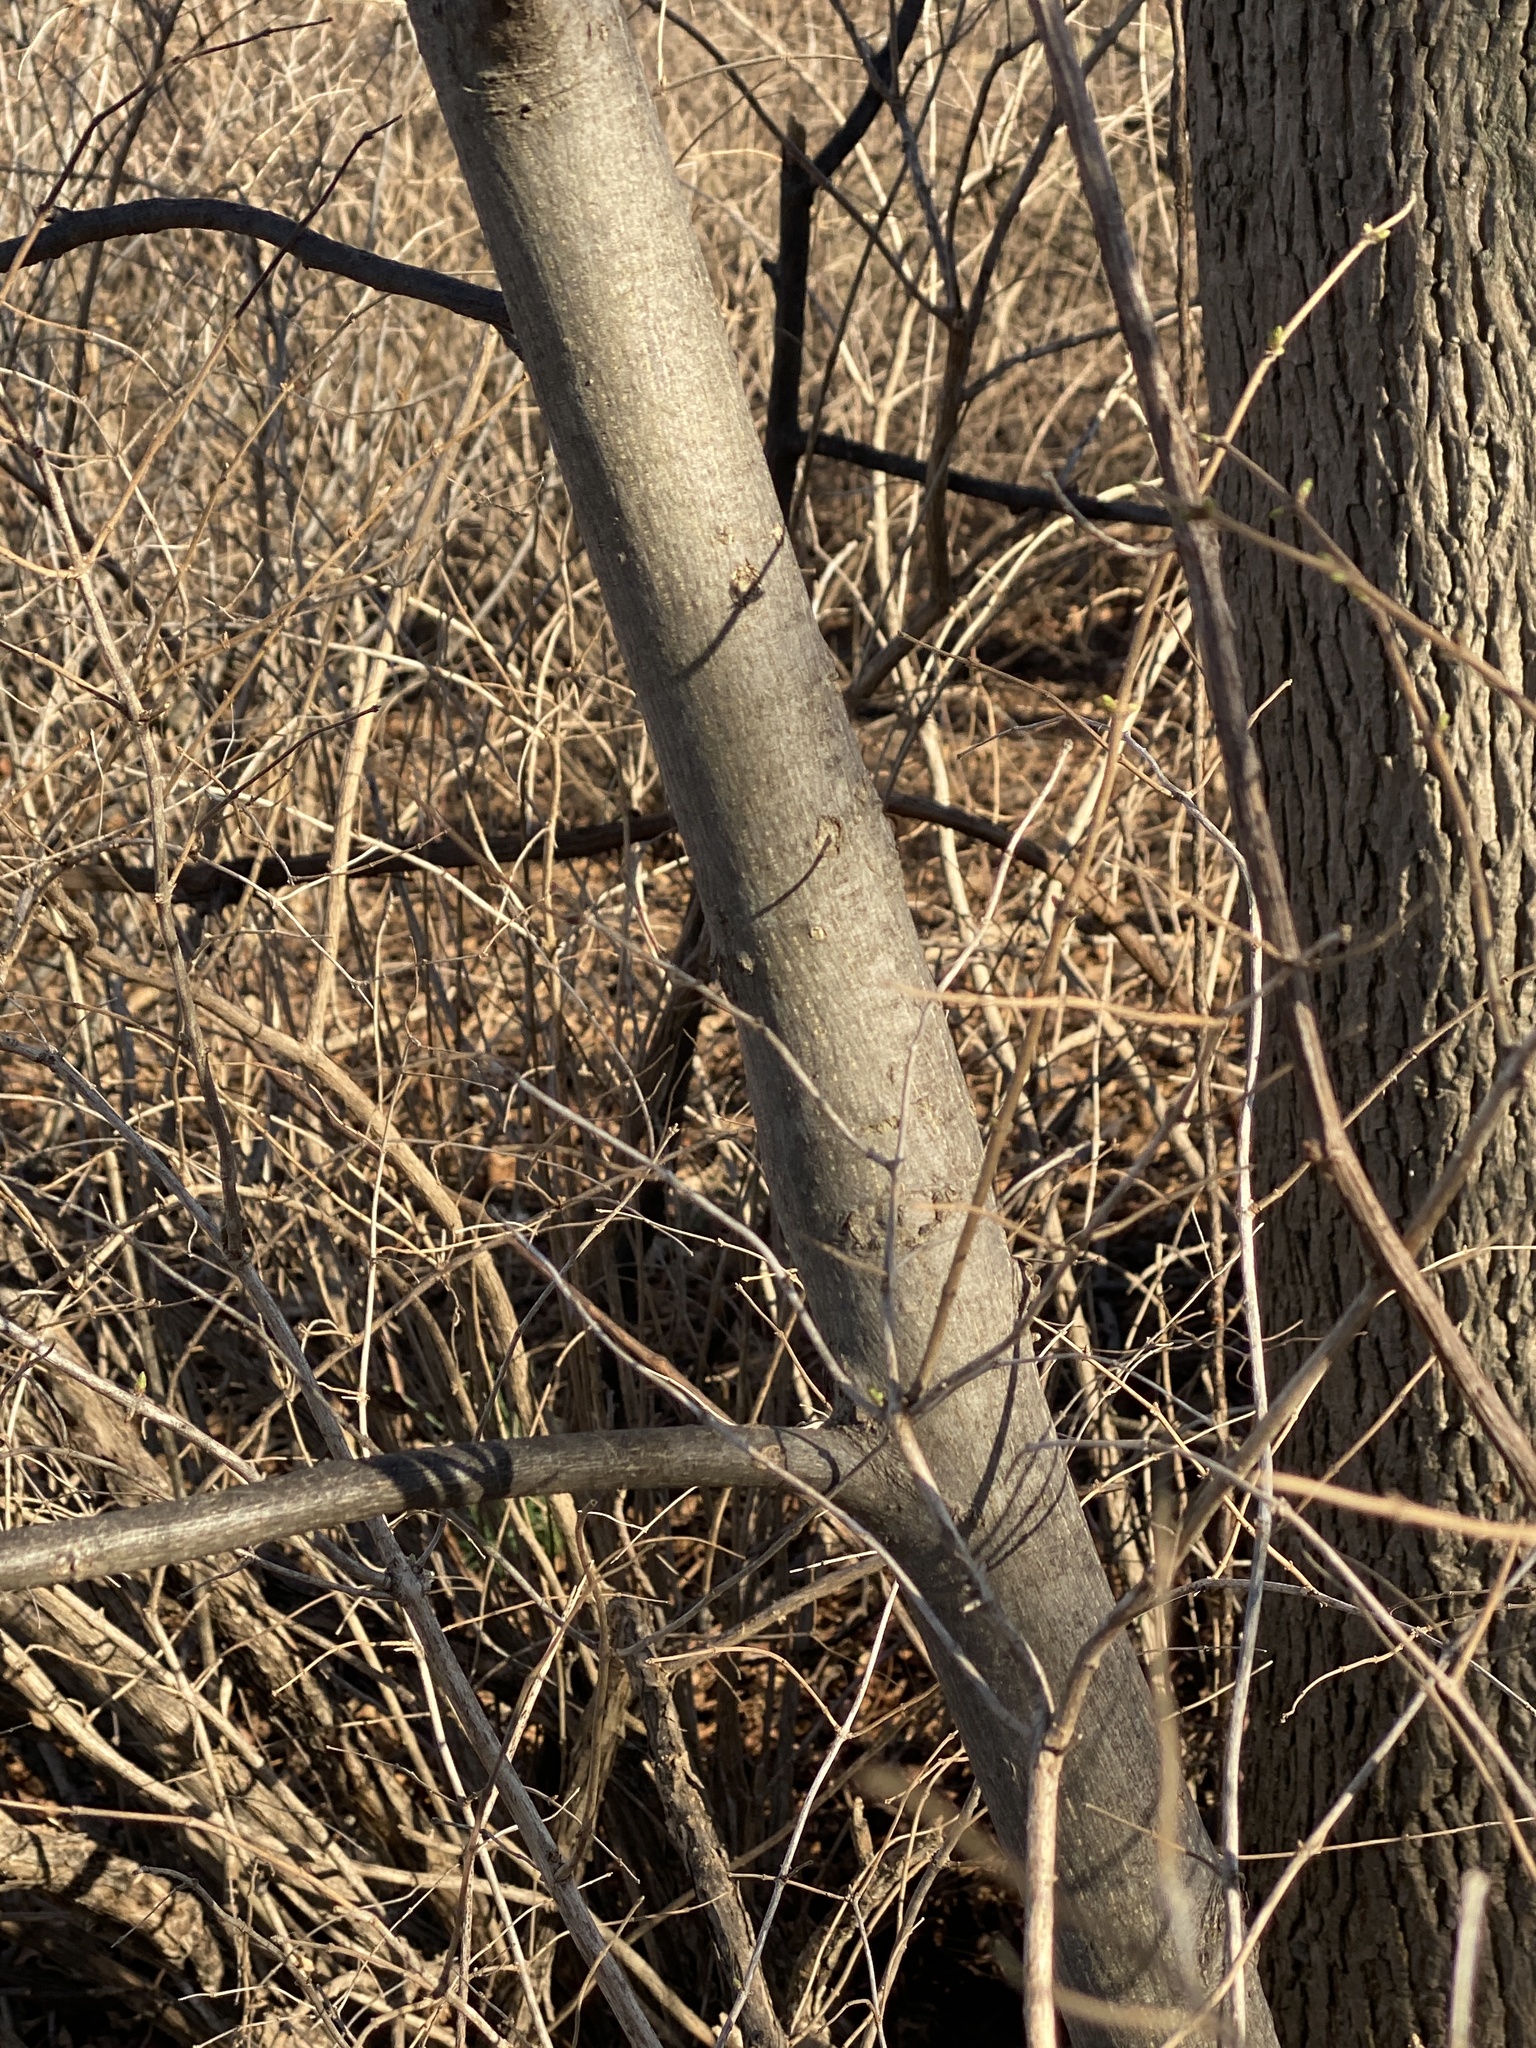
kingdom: Plantae
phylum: Tracheophyta
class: Magnoliopsida
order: Fagales
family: Juglandaceae
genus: Carya
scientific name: Carya cordiformis
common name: Bitternut hickory
